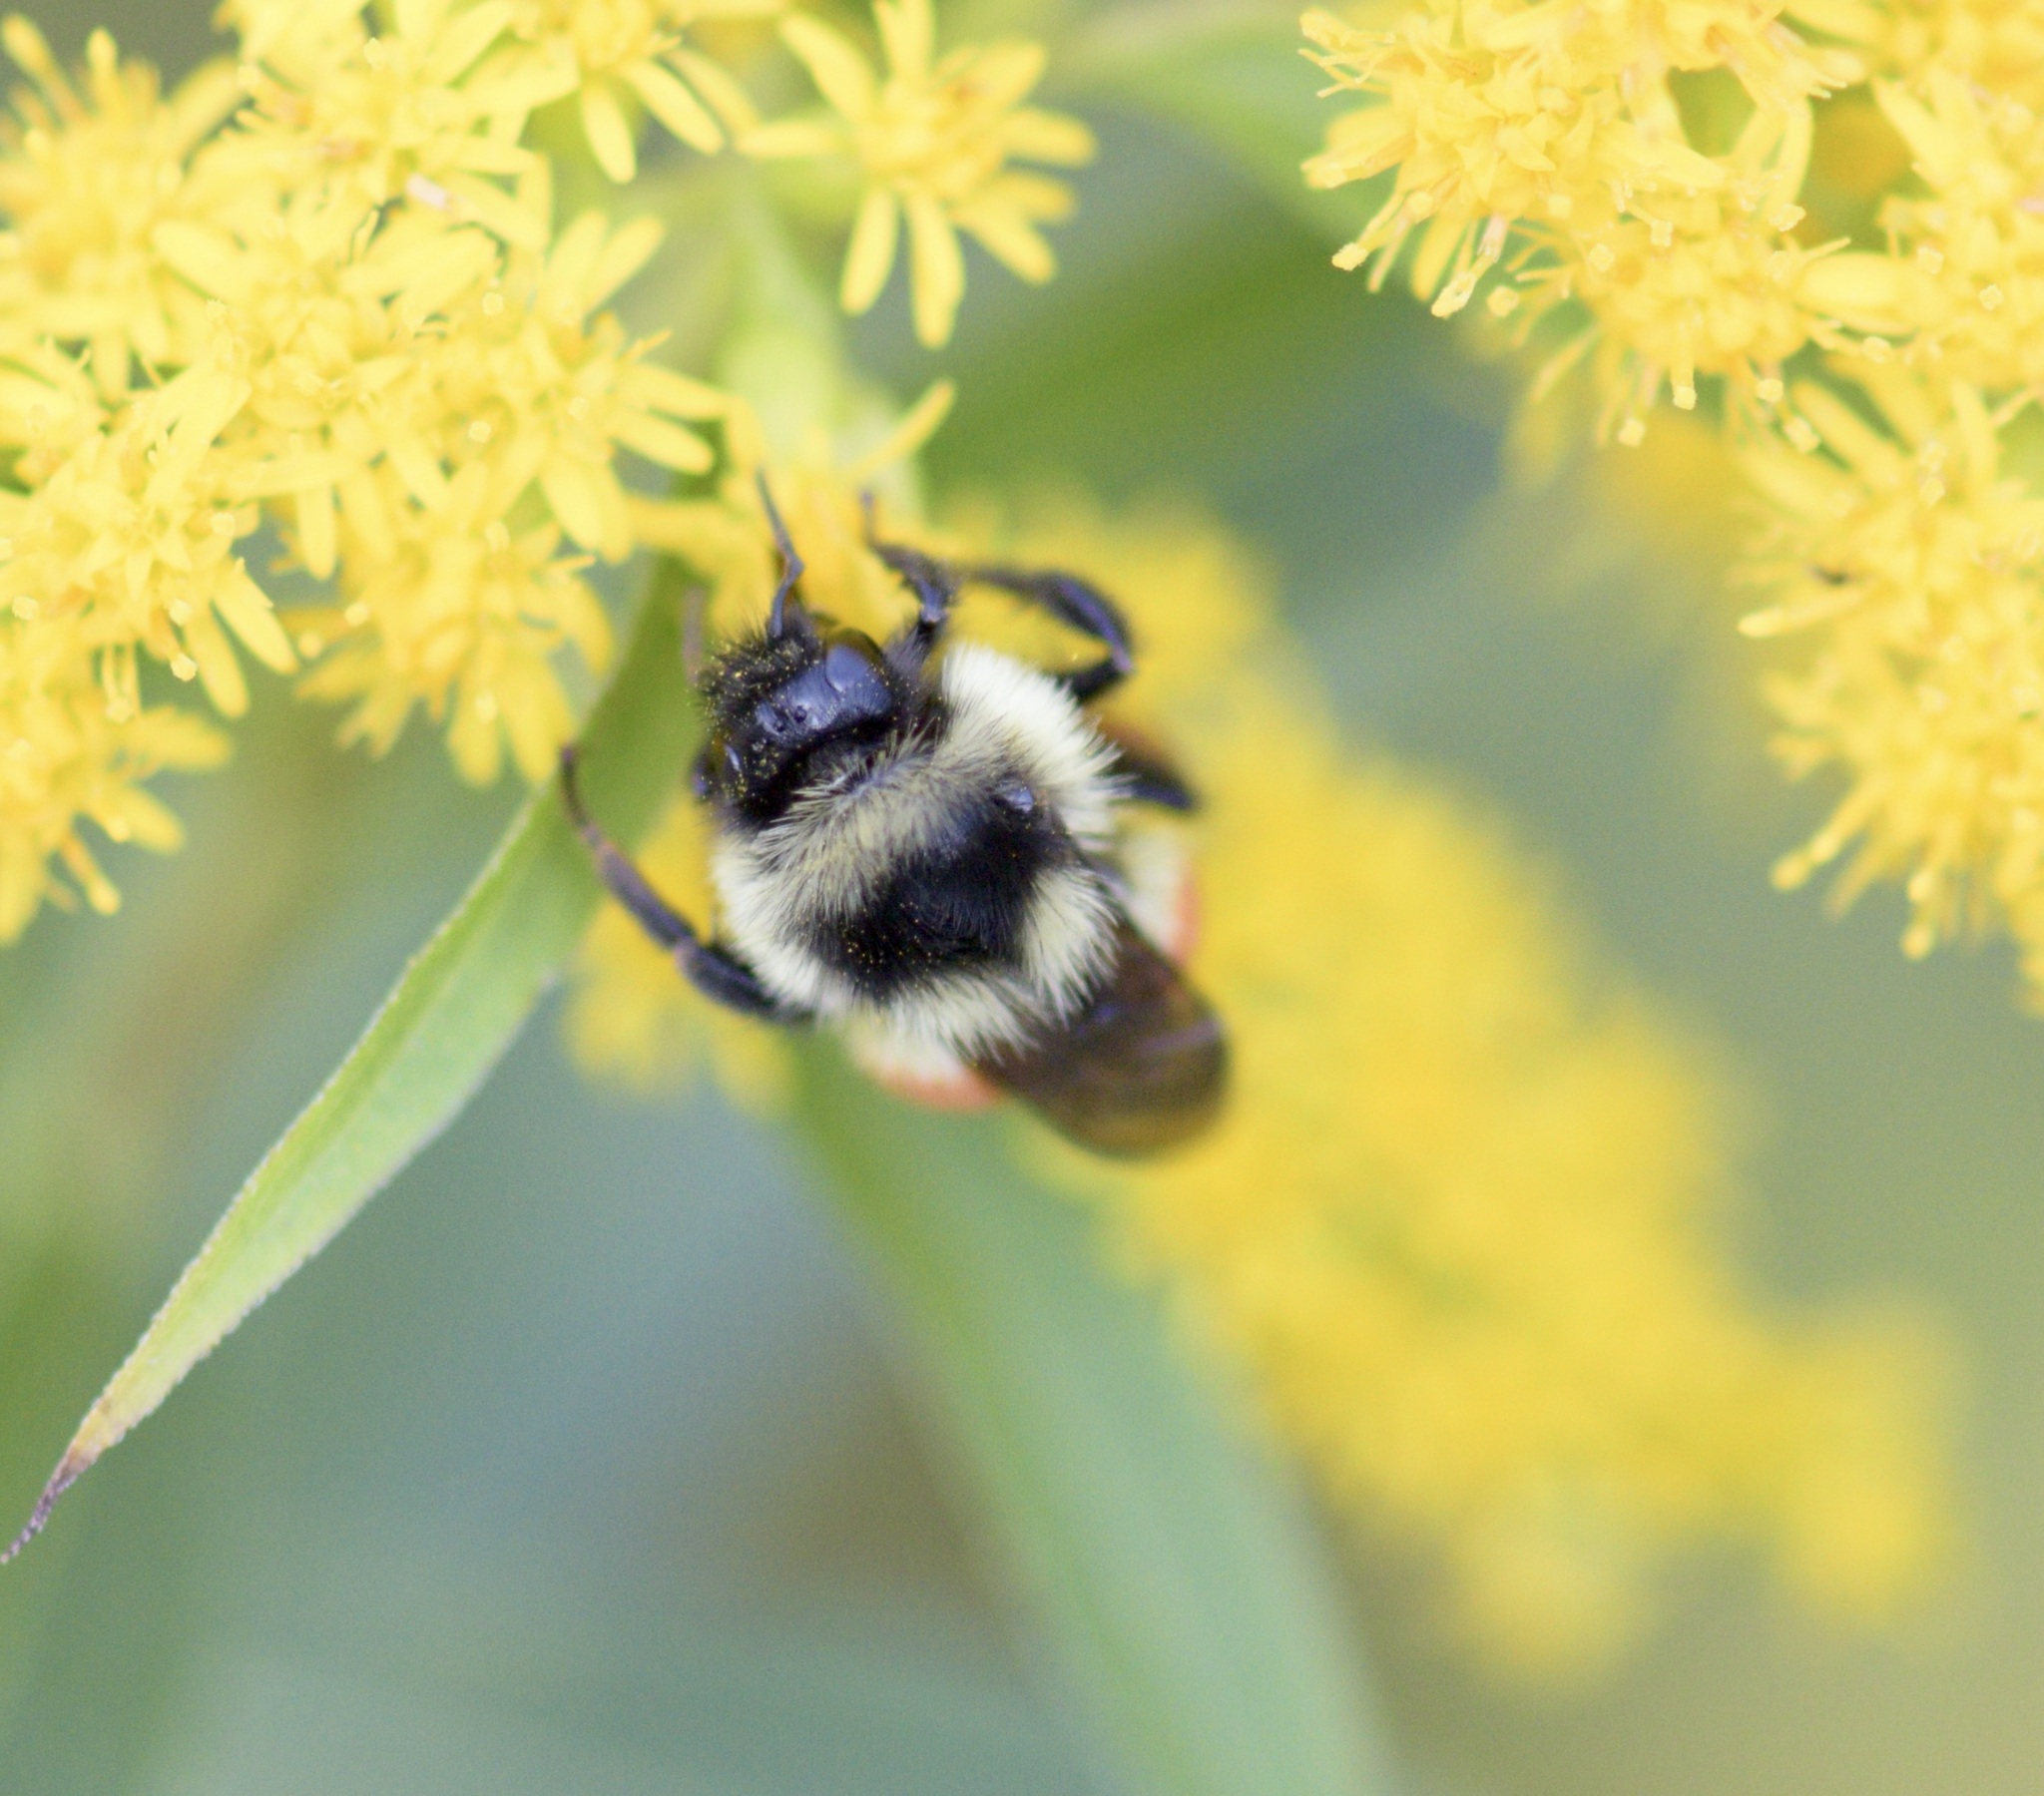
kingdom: Animalia
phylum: Arthropoda
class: Insecta
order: Hymenoptera
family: Apidae
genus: Bombus
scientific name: Bombus ternarius
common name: Tri-colored bumble bee
